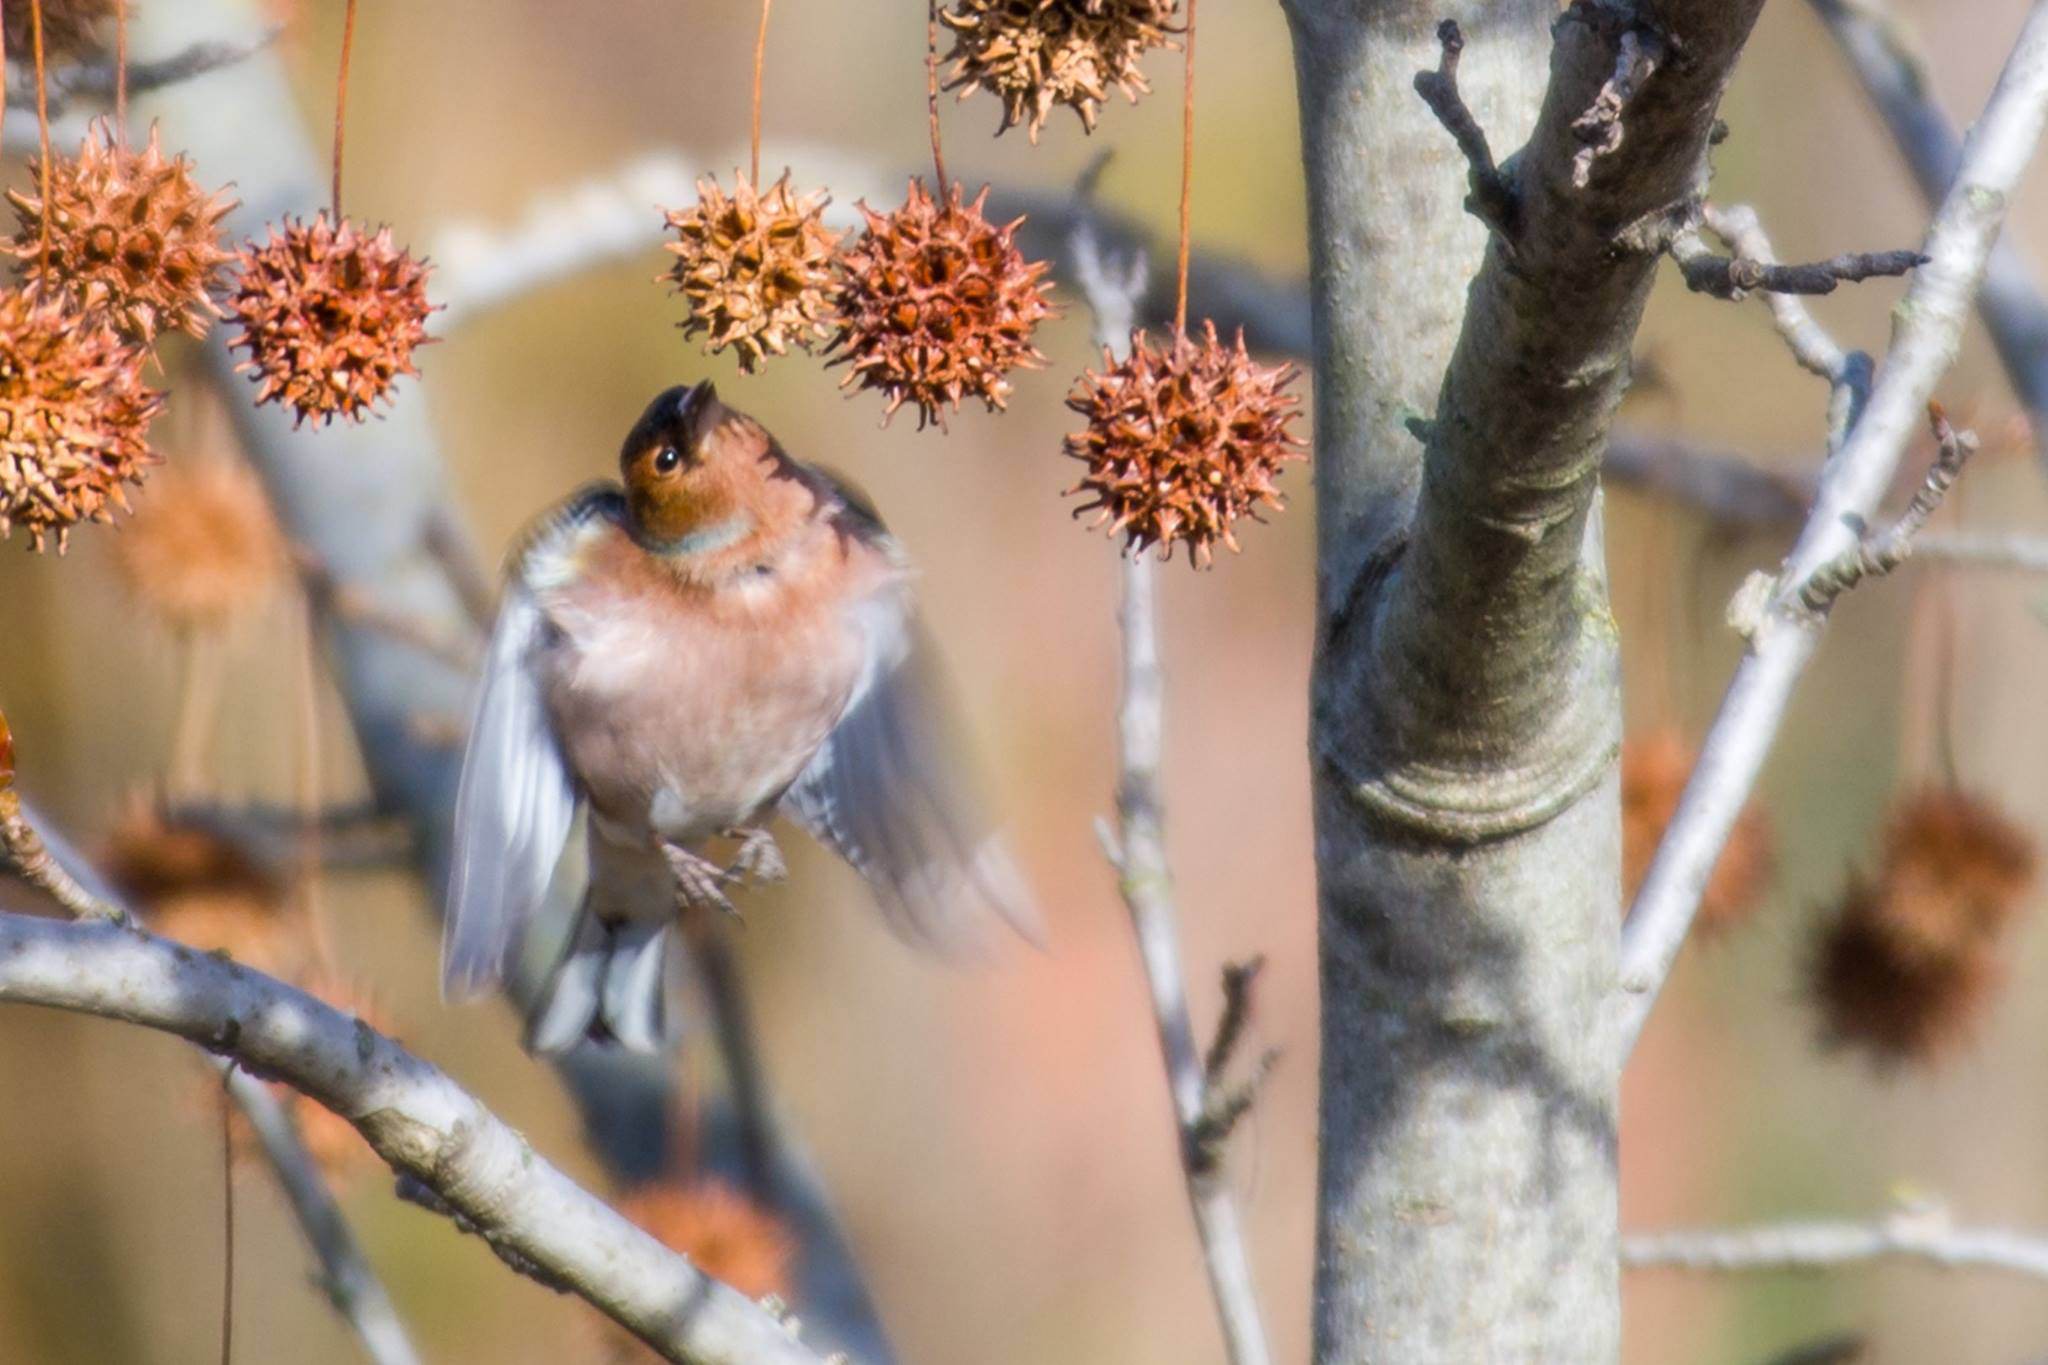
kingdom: Animalia
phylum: Chordata
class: Aves
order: Passeriformes
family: Fringillidae
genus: Fringilla
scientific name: Fringilla coelebs
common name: Common chaffinch
